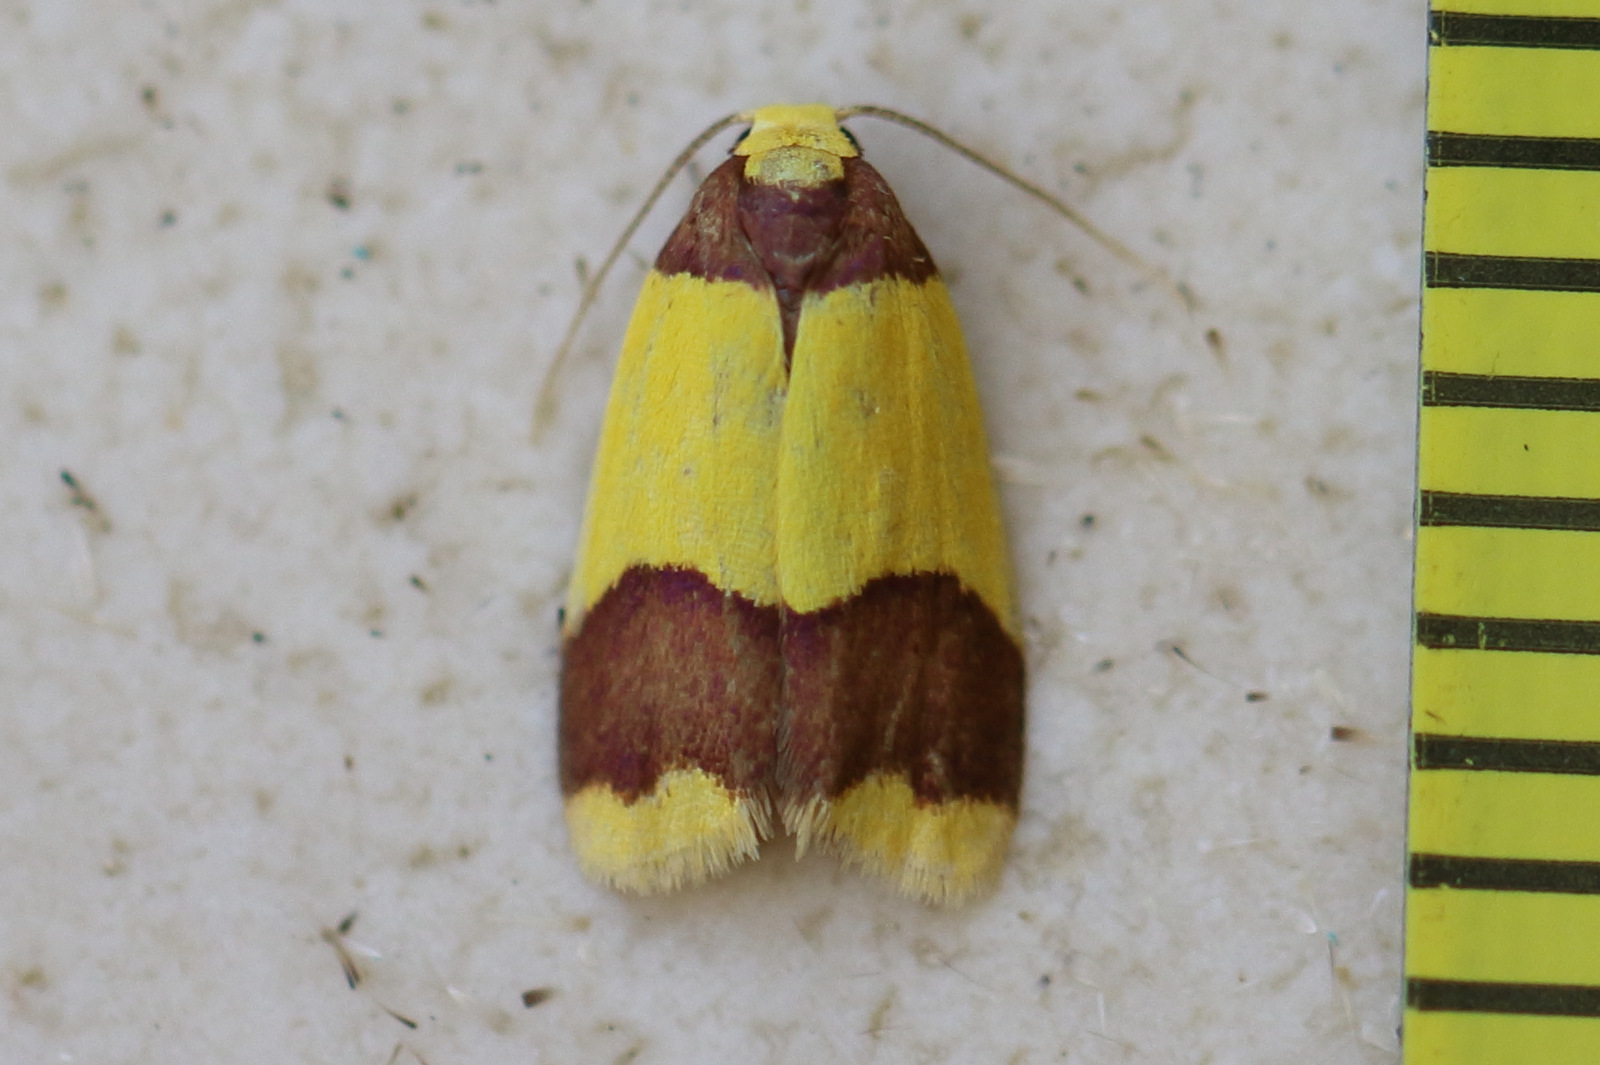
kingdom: Animalia
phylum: Arthropoda
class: Insecta
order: Lepidoptera
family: Erebidae
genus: Heterallactis
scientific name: Heterallactis microchrysa
